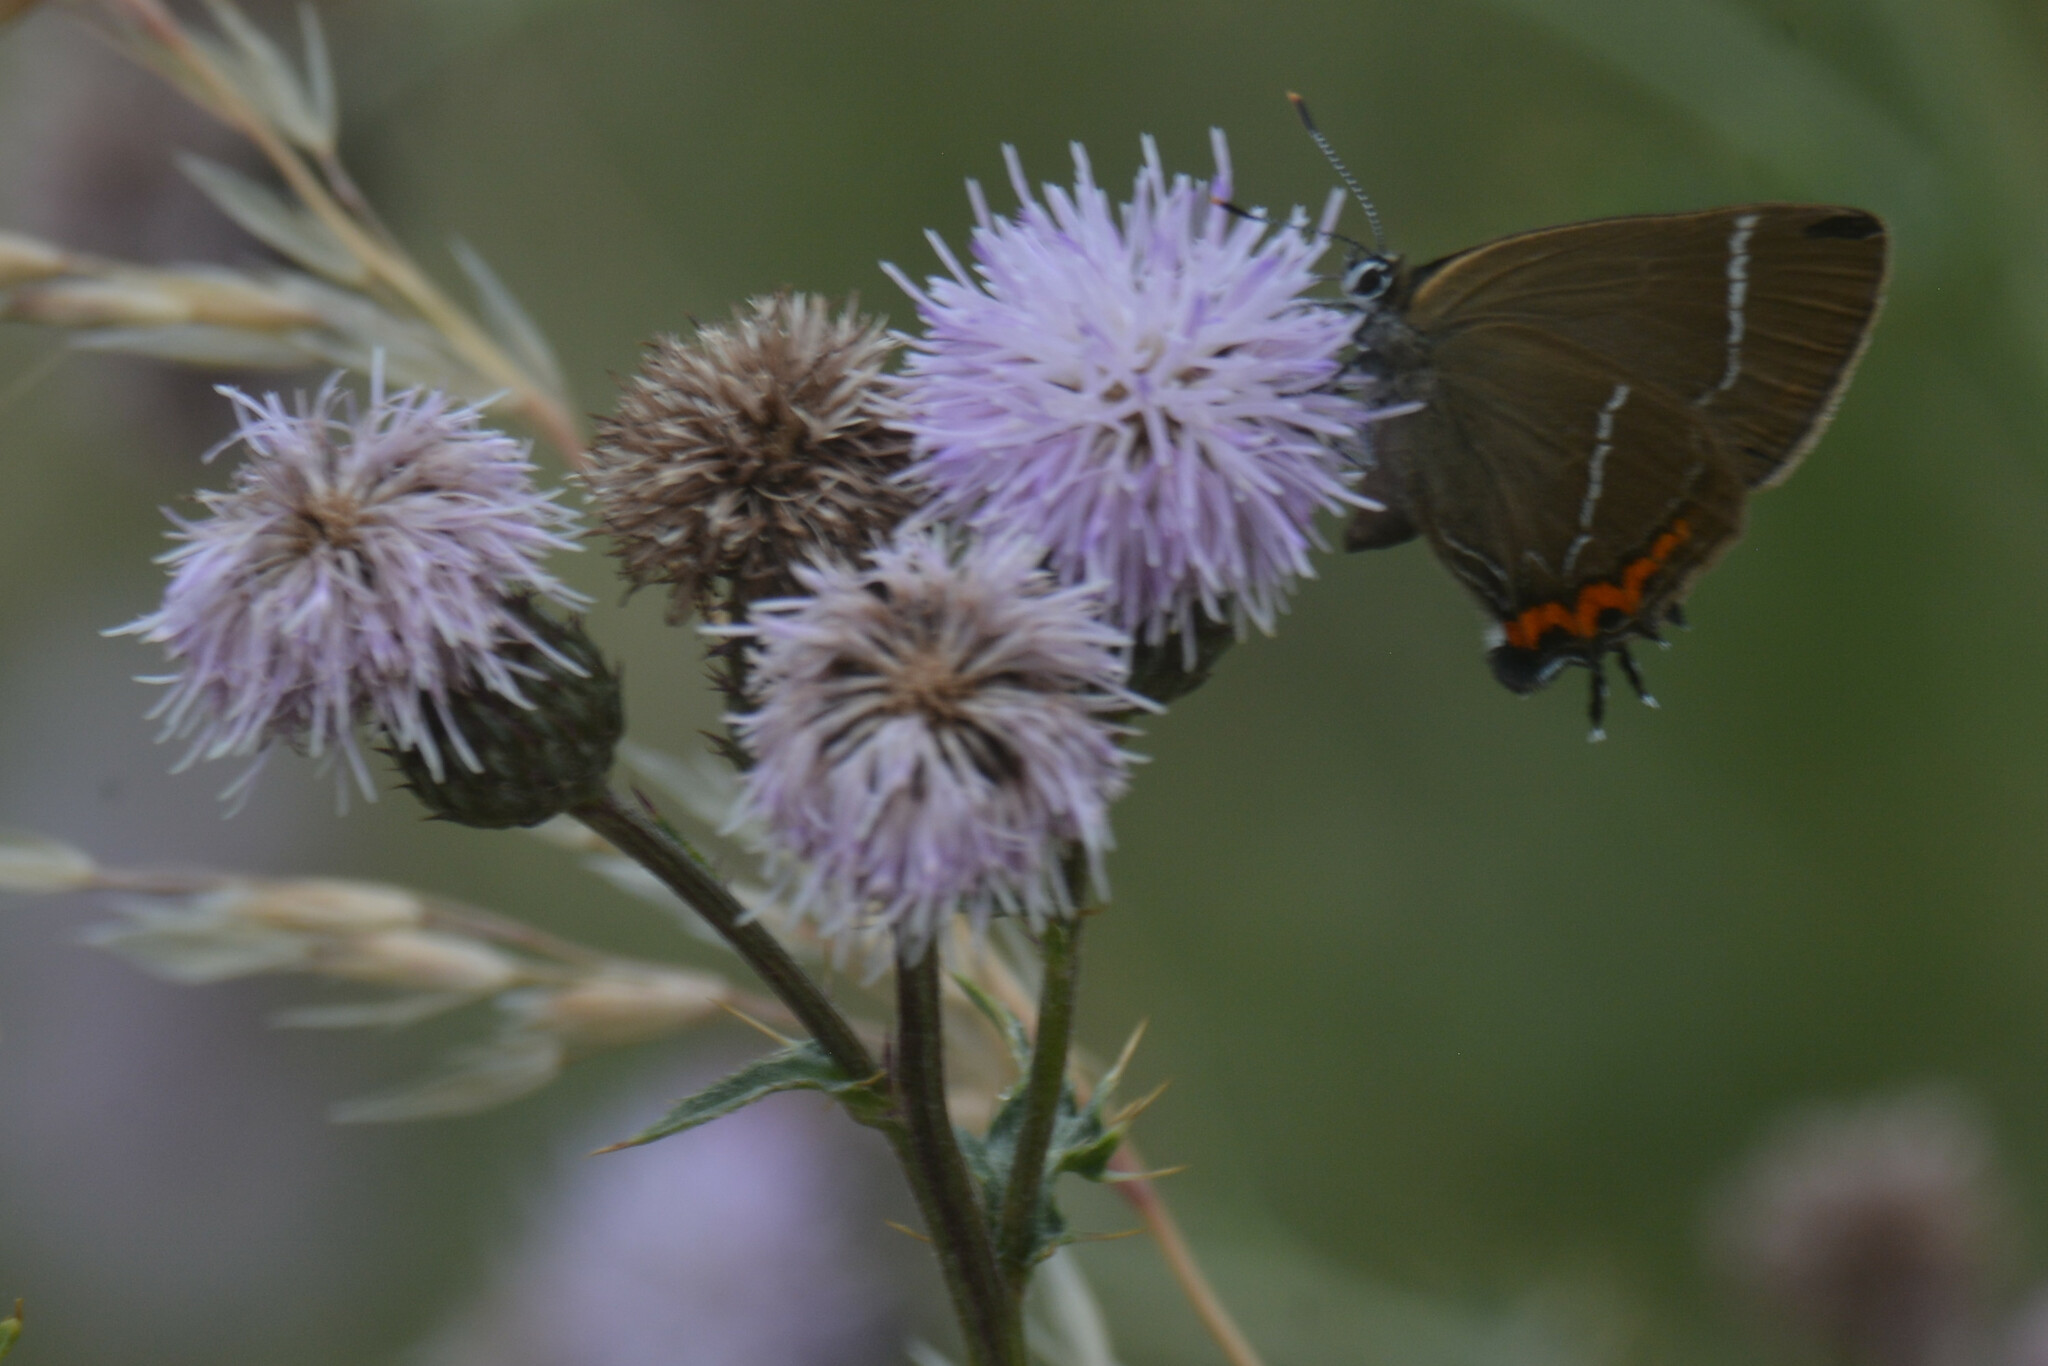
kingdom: Animalia
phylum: Arthropoda
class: Insecta
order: Lepidoptera
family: Lycaenidae
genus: Satyrium
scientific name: Satyrium w-album
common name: White-letter hairstreak
